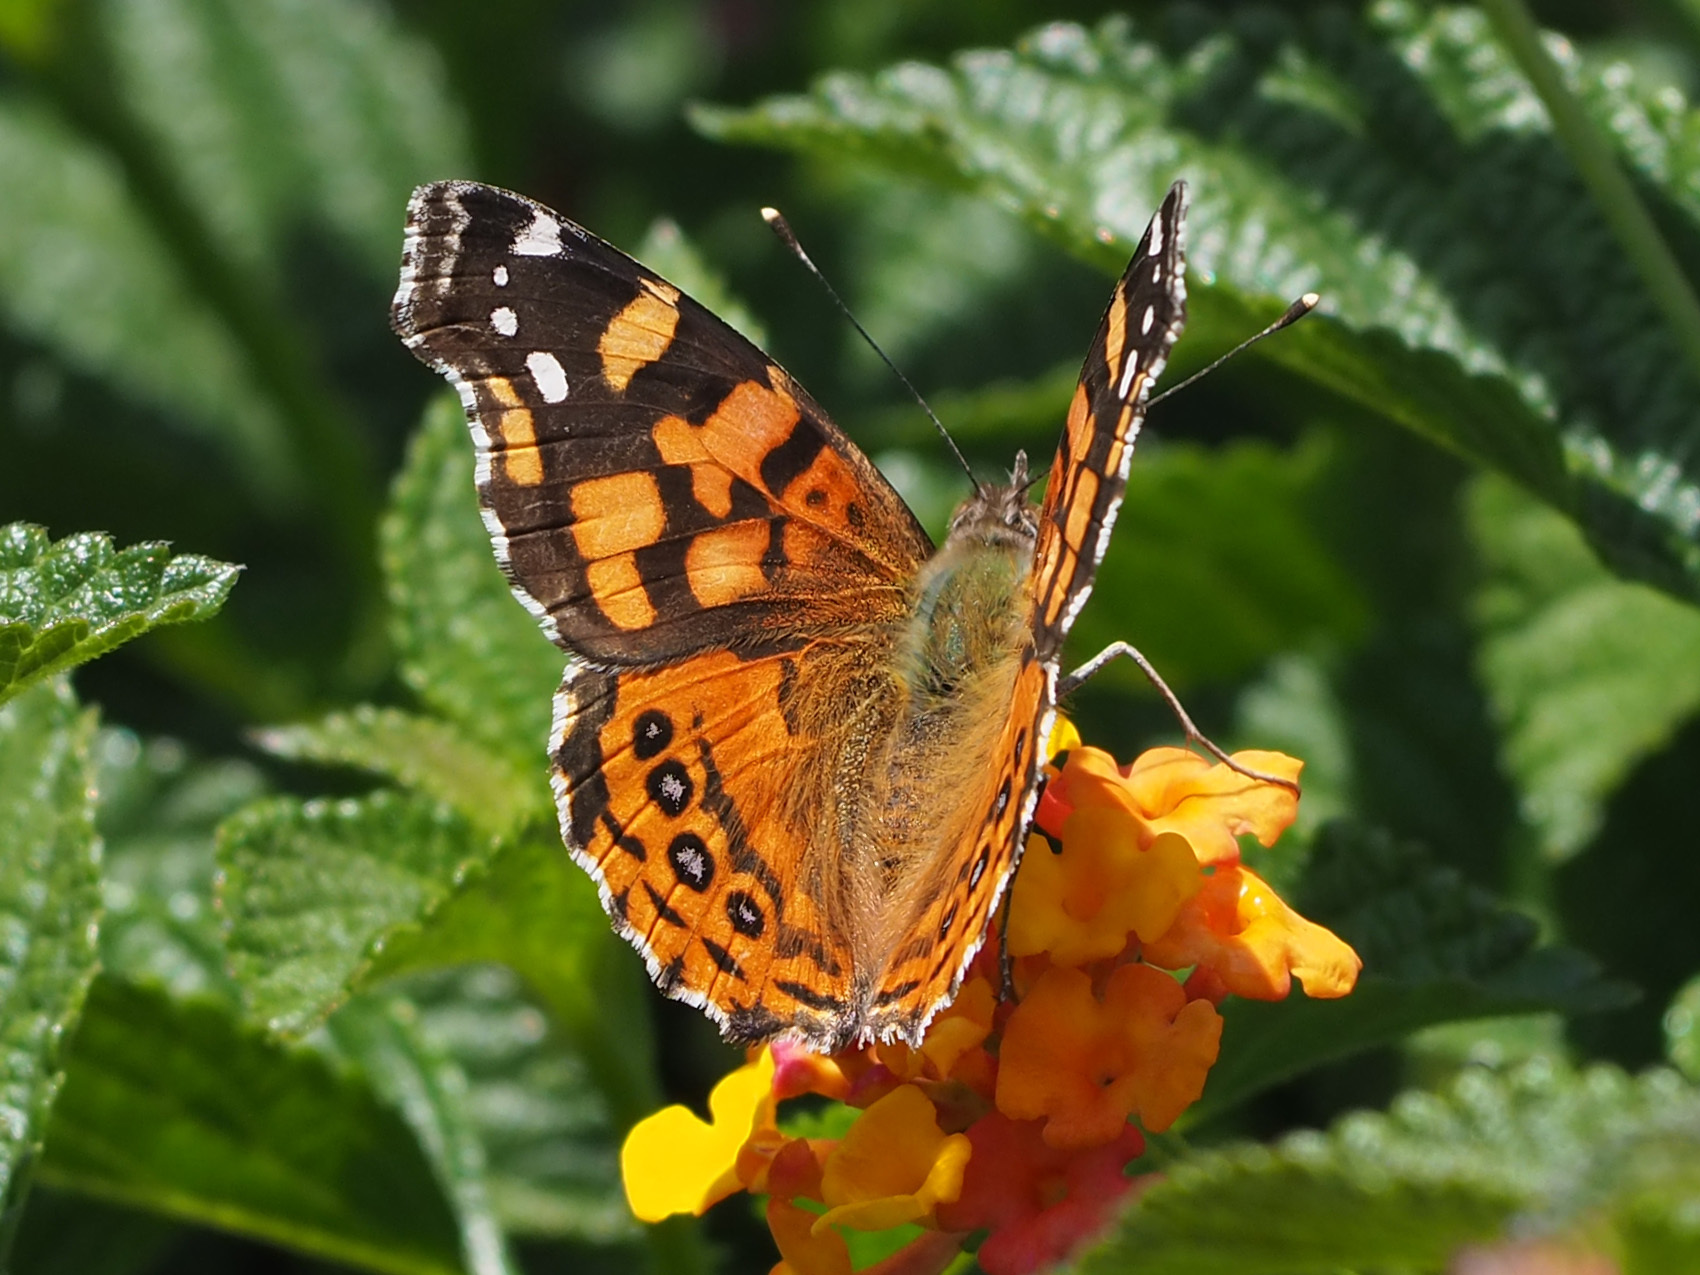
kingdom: Animalia
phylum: Arthropoda
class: Insecta
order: Lepidoptera
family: Nymphalidae
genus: Vanessa
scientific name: Vanessa carye
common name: Subtropical lady
